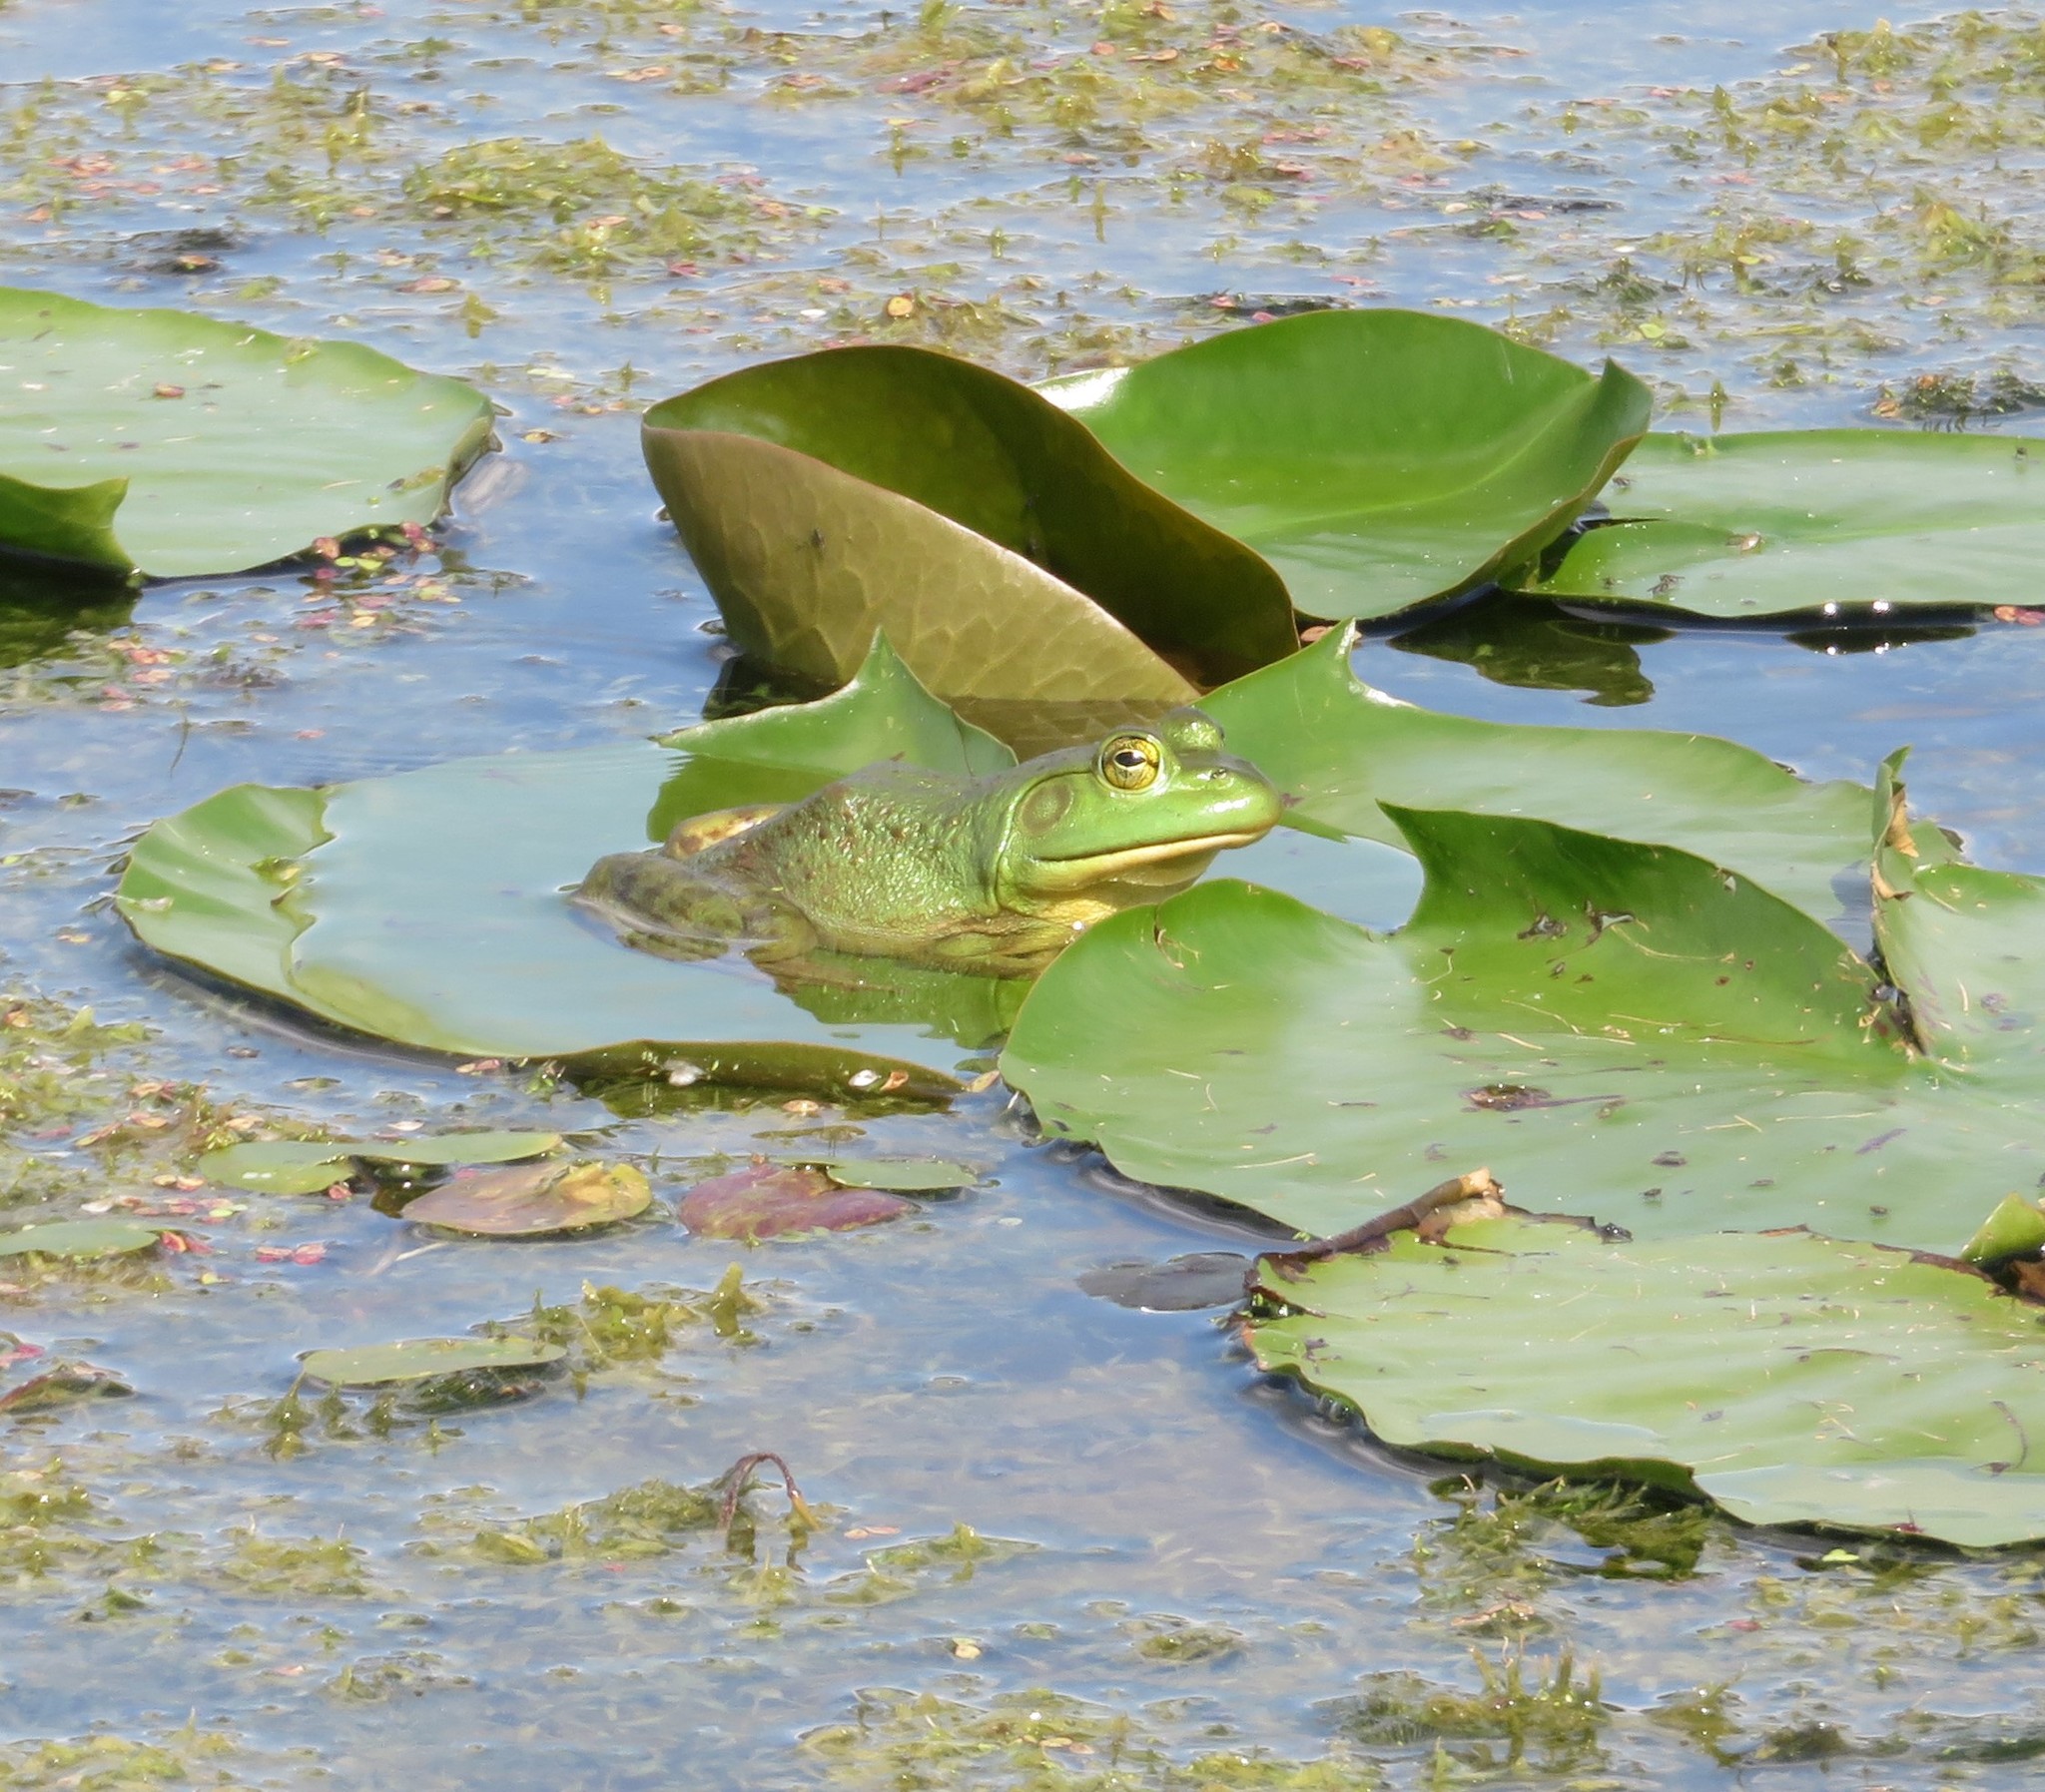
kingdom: Animalia
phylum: Chordata
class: Amphibia
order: Anura
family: Ranidae
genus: Lithobates
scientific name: Lithobates catesbeianus
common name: American bullfrog
